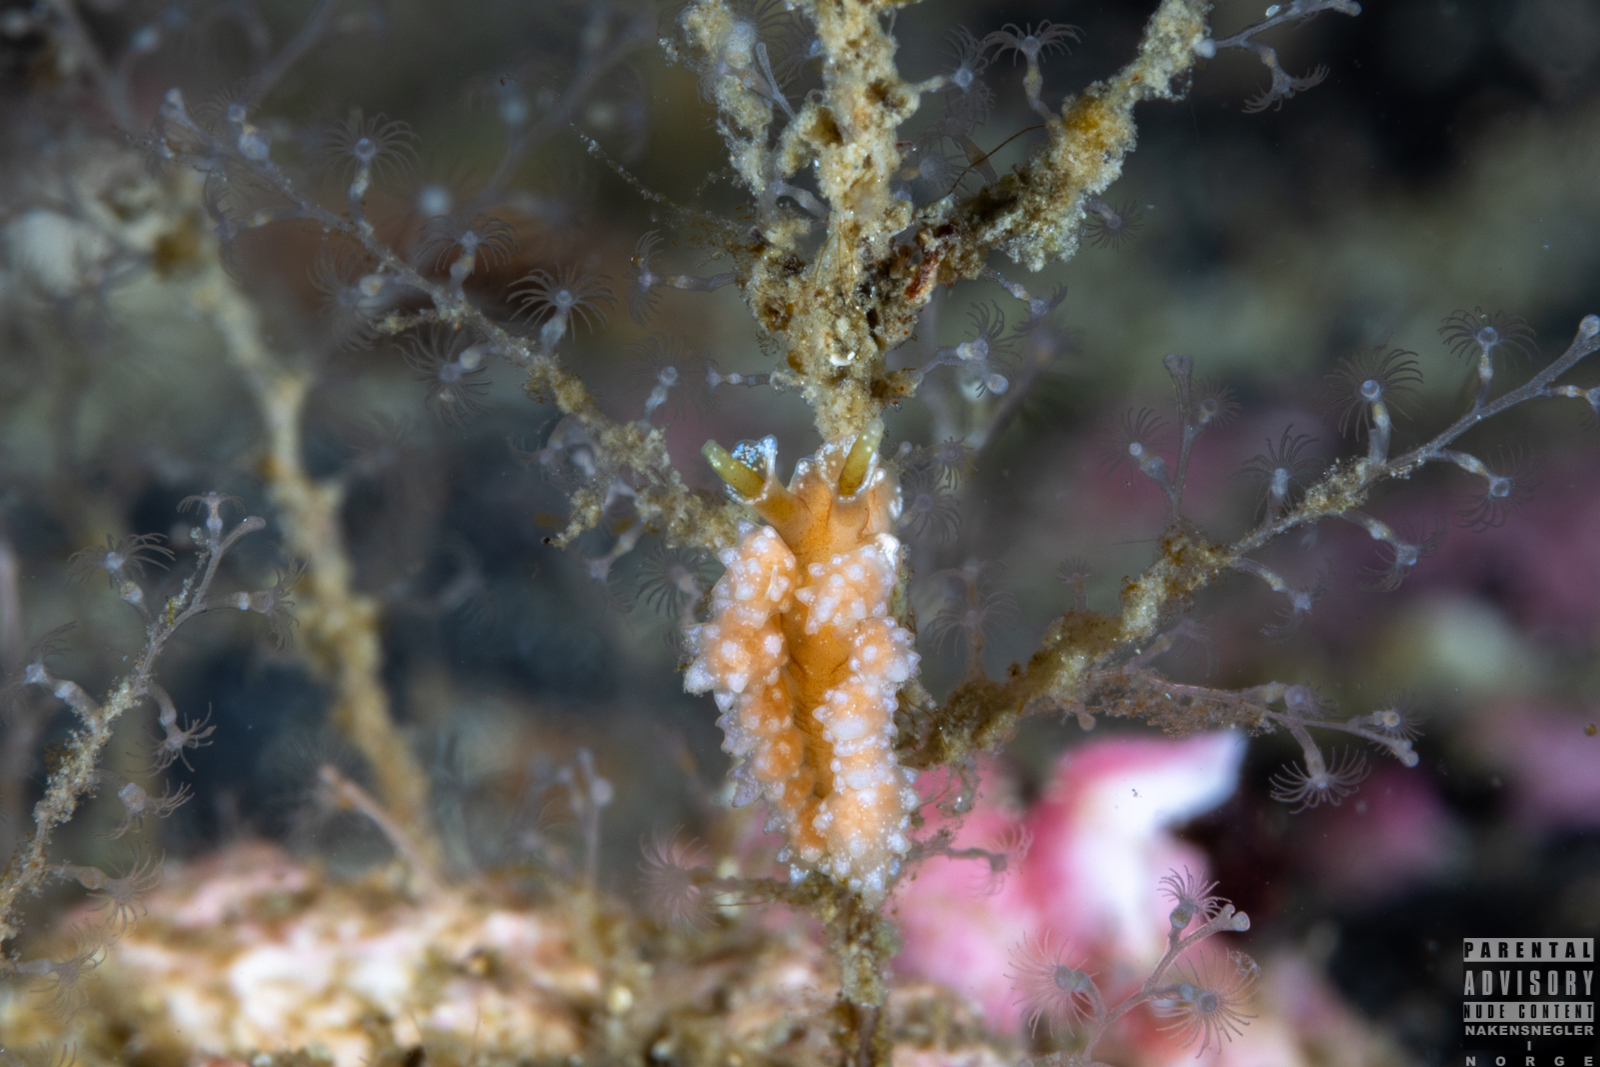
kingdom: Animalia
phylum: Mollusca
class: Gastropoda
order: Nudibranchia
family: Dotidae
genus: Doto
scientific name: Doto fragilis
